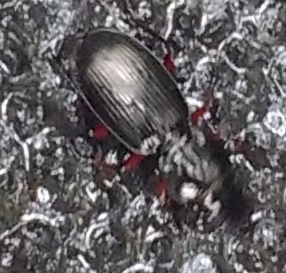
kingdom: Animalia
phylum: Arthropoda
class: Insecta
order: Coleoptera
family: Carabidae
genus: Pterostichus
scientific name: Pterostichus madidus
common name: Black clock
